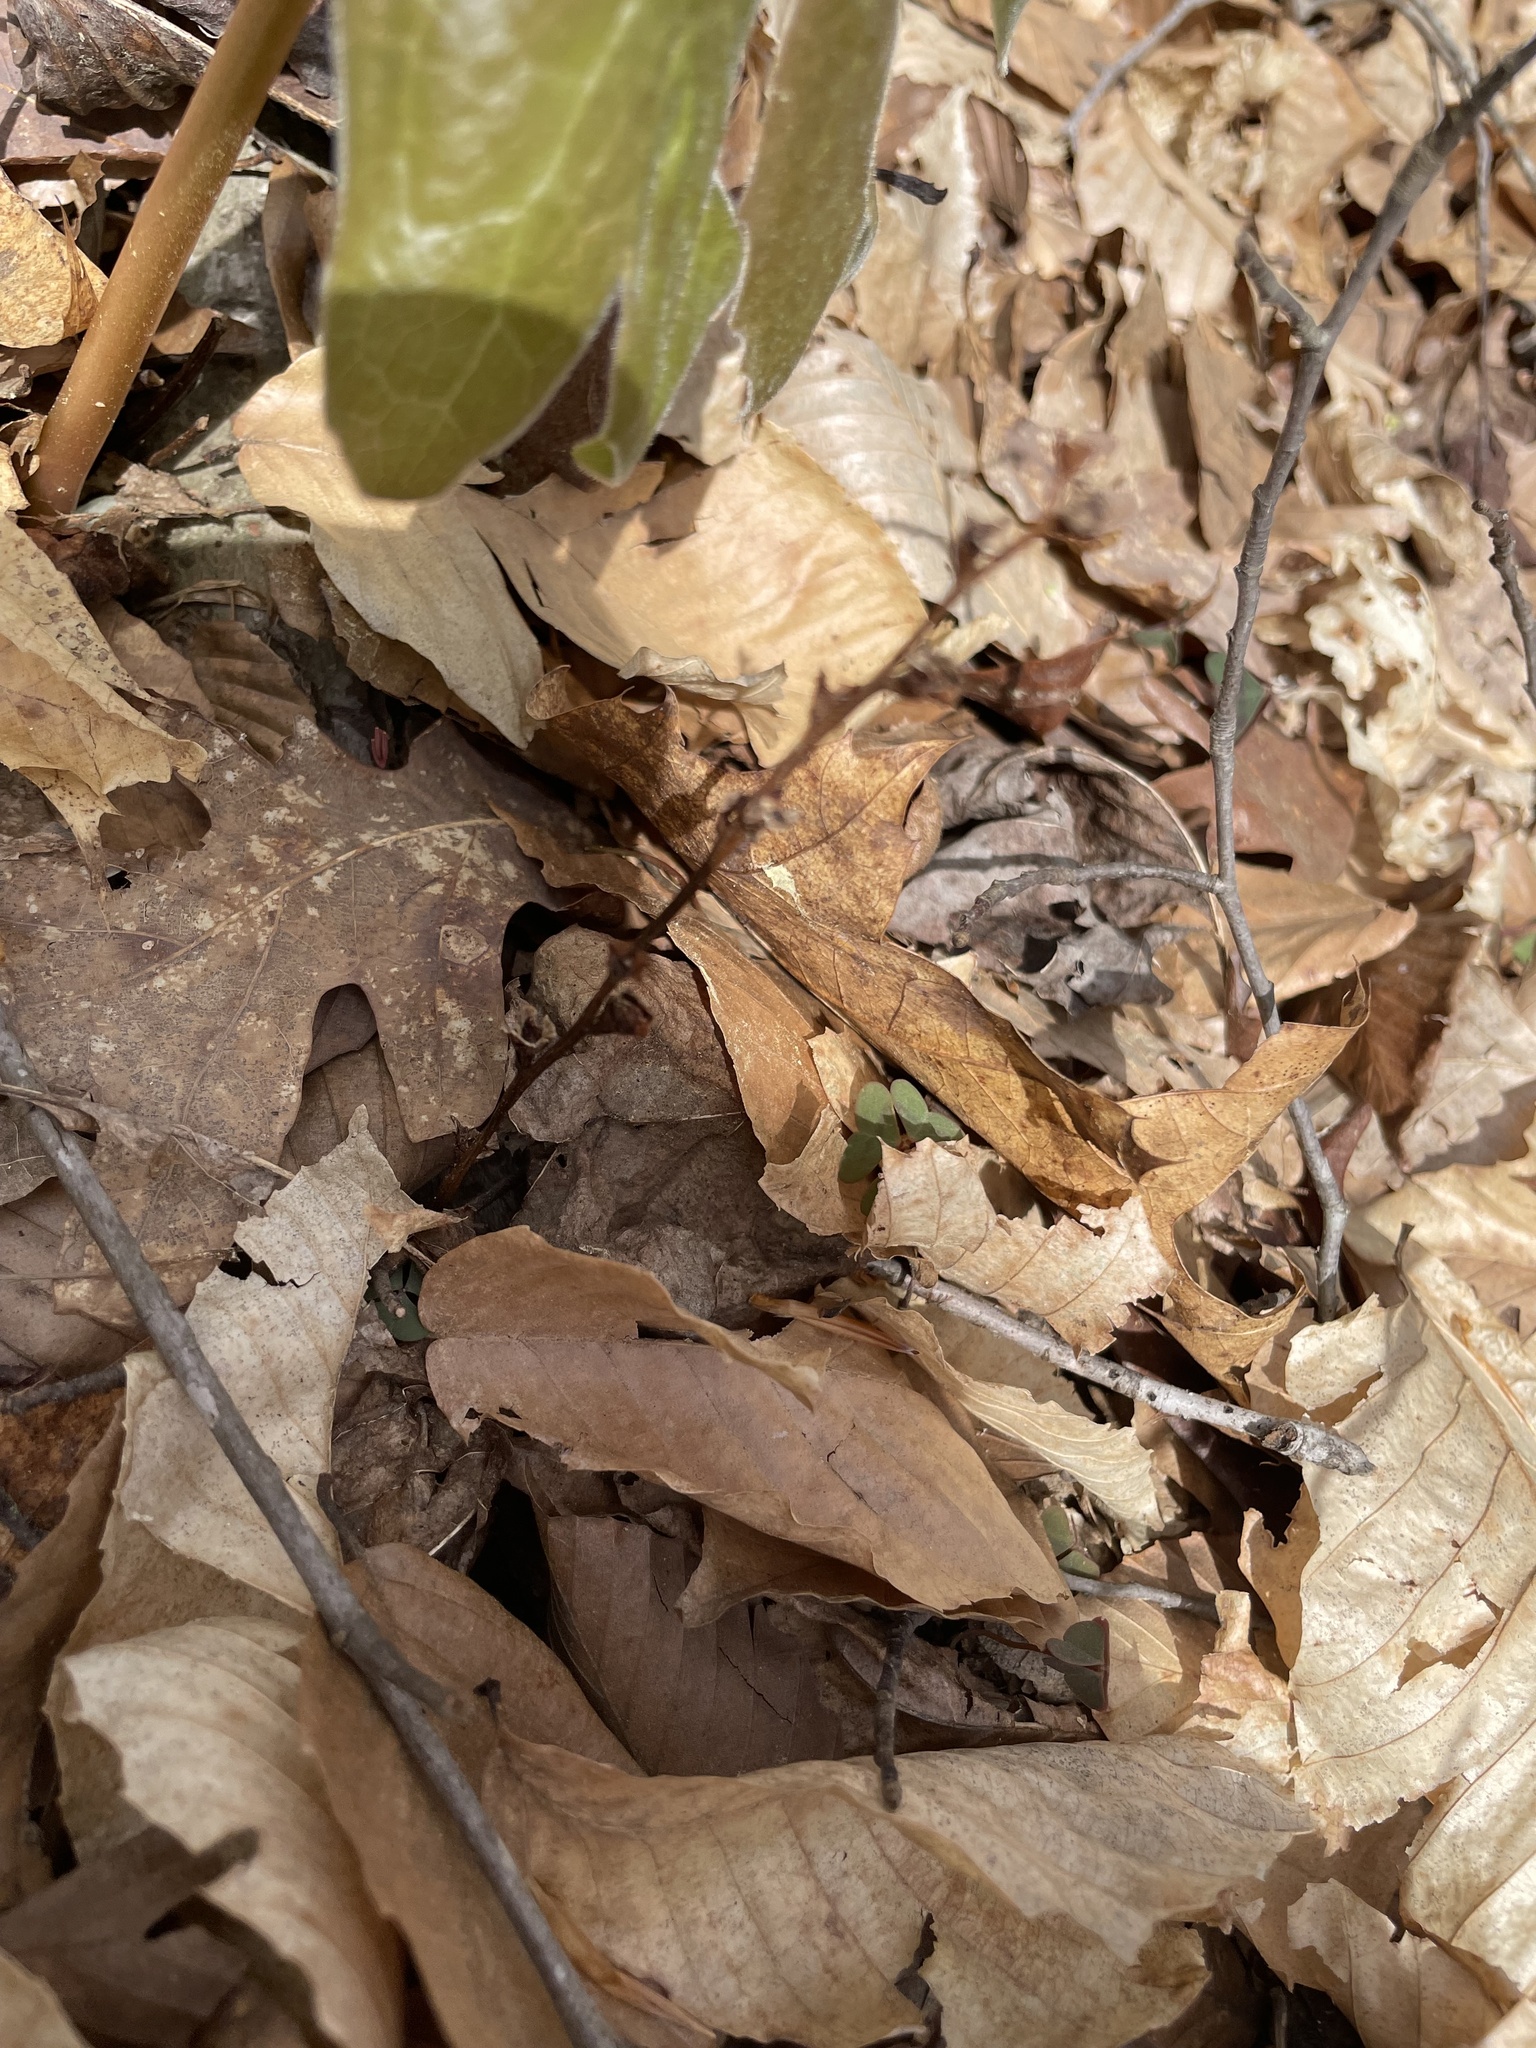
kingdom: Plantae
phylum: Tracheophyta
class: Magnoliopsida
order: Lamiales
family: Orobanchaceae
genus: Epifagus
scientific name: Epifagus virginiana
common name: Beechdrops
